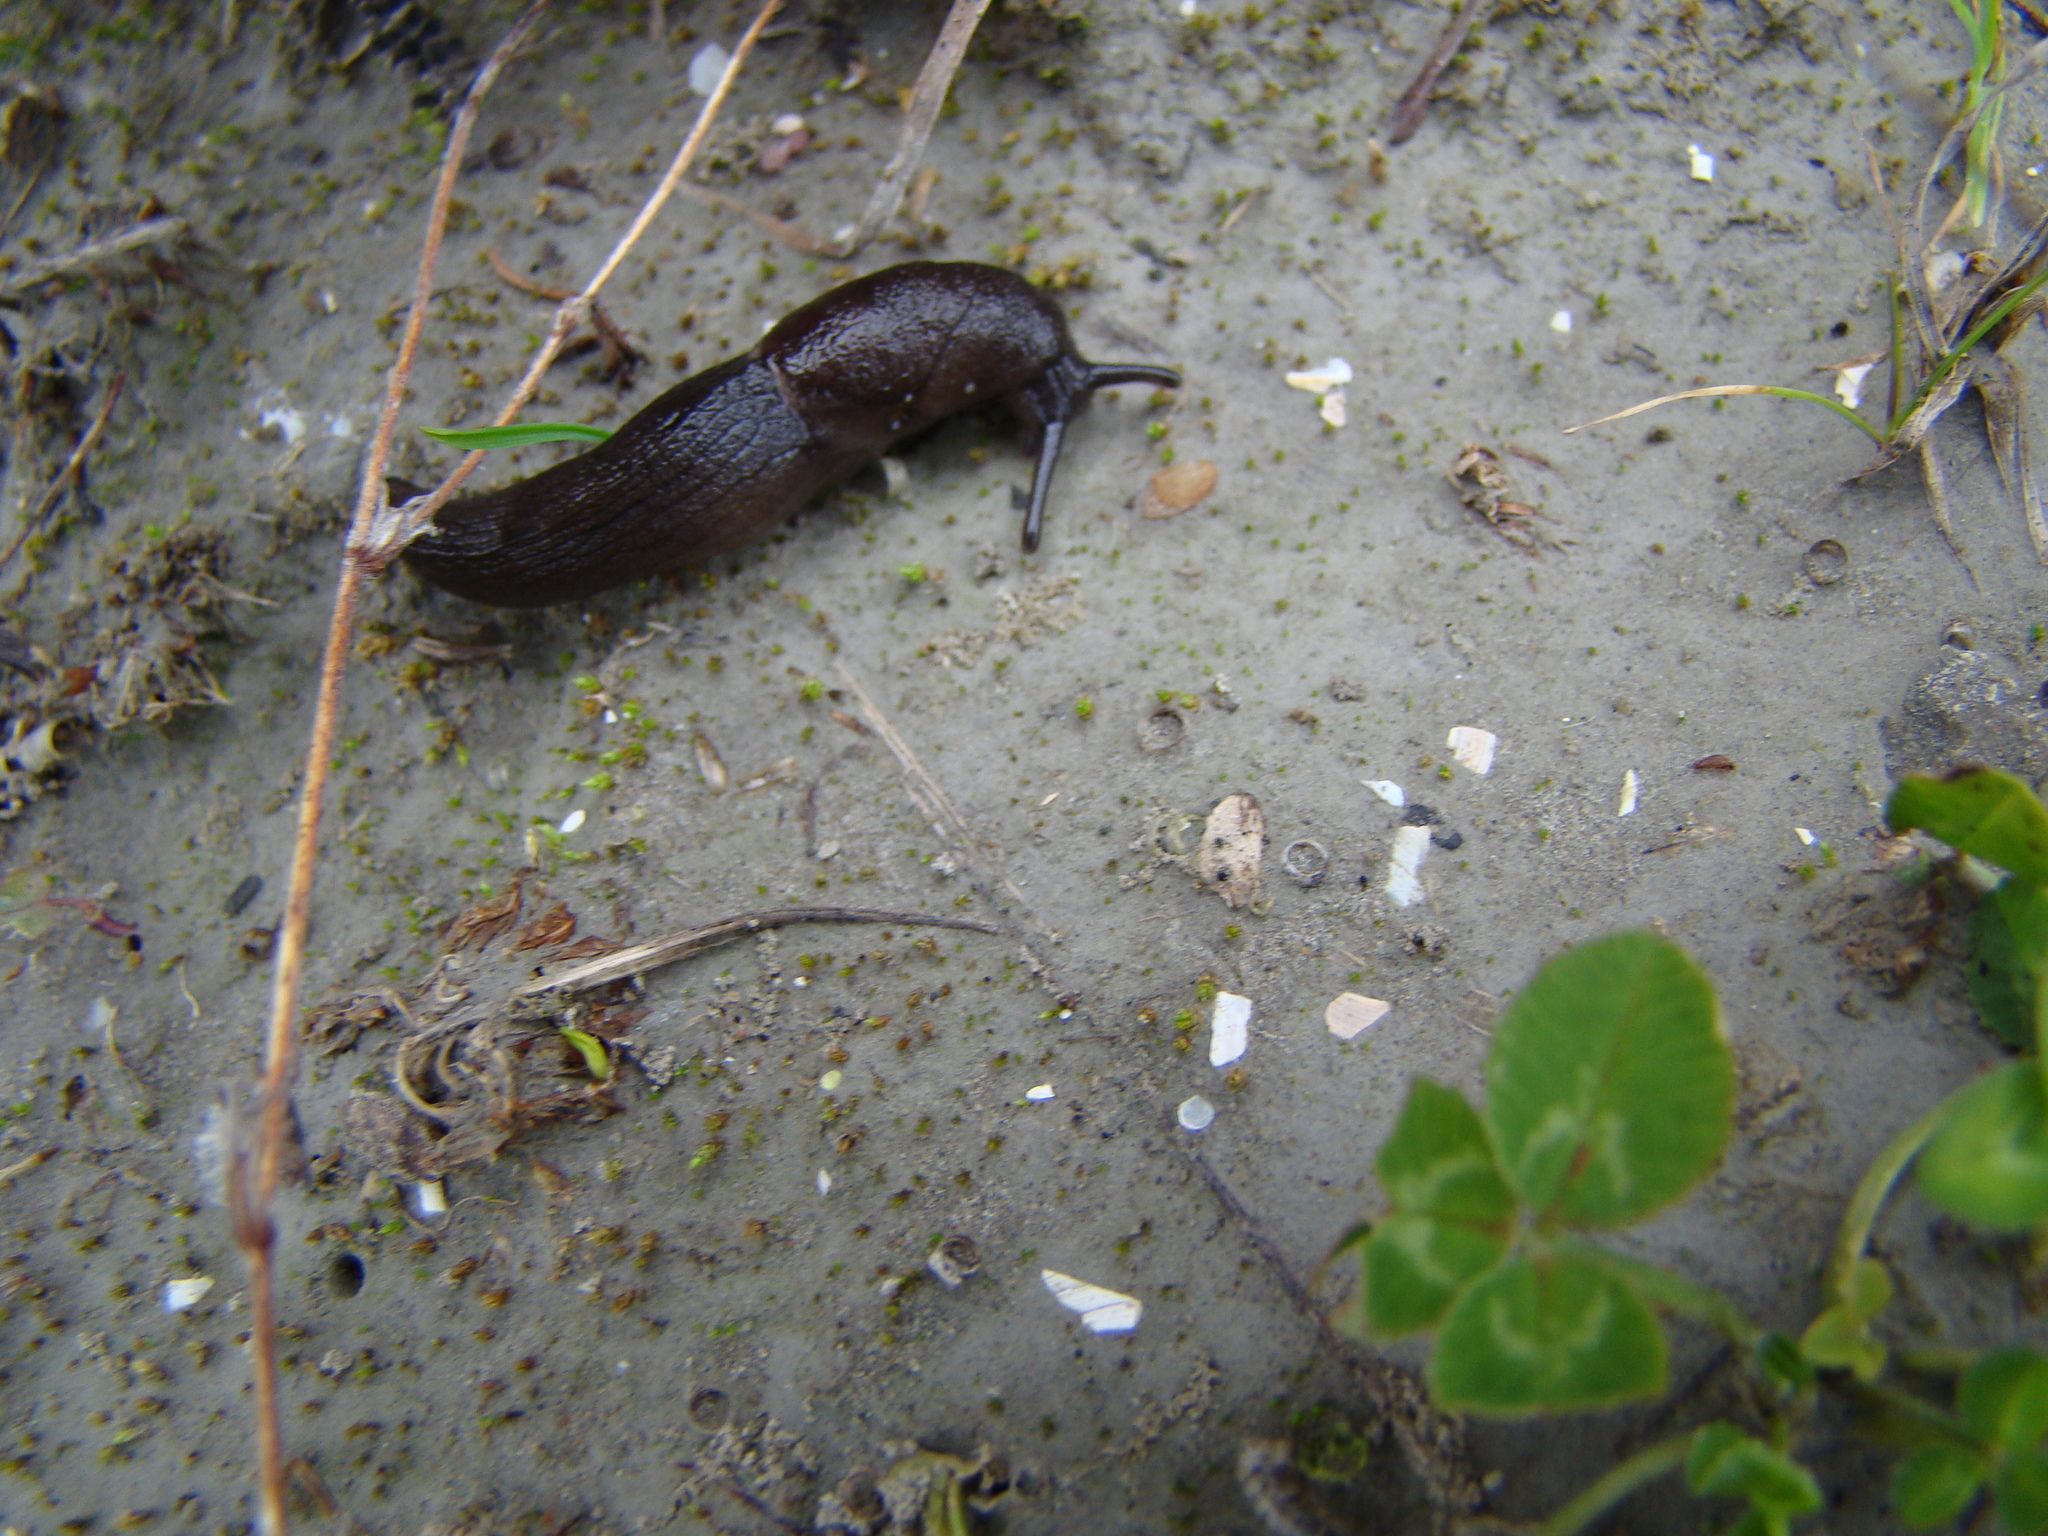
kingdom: Animalia
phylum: Mollusca
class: Gastropoda
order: Stylommatophora
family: Milacidae
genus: Milax
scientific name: Milax gagates
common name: Greenhouse slug
